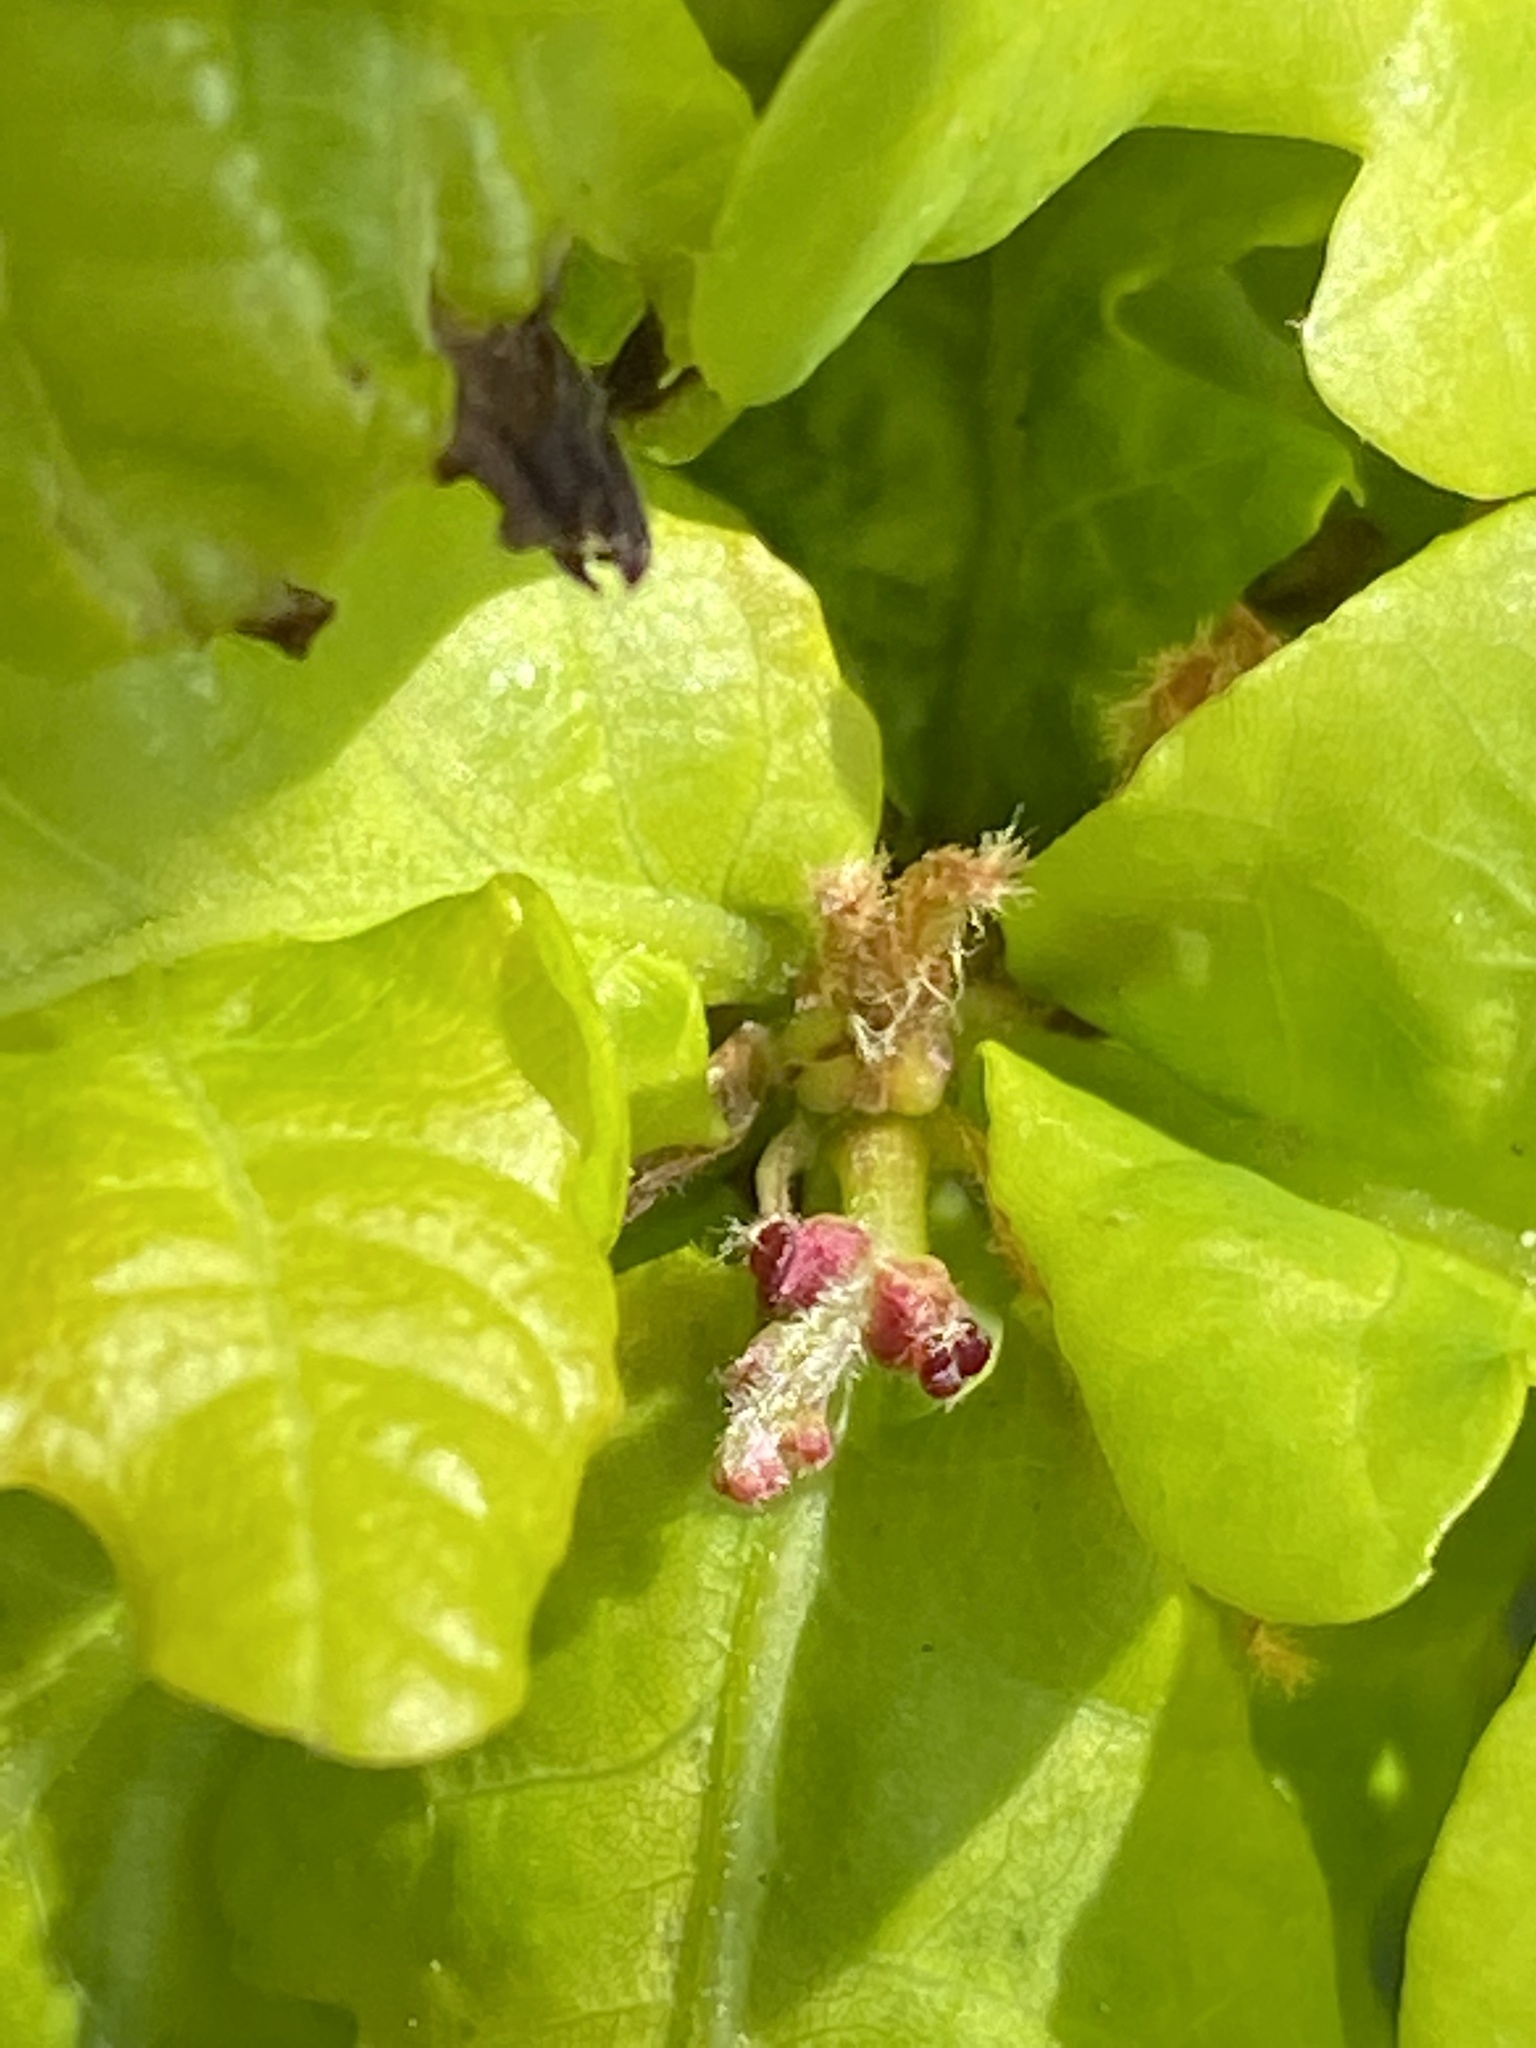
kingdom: Plantae
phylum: Tracheophyta
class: Magnoliopsida
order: Fagales
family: Fagaceae
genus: Quercus
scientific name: Quercus robur
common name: Pedunculate oak
